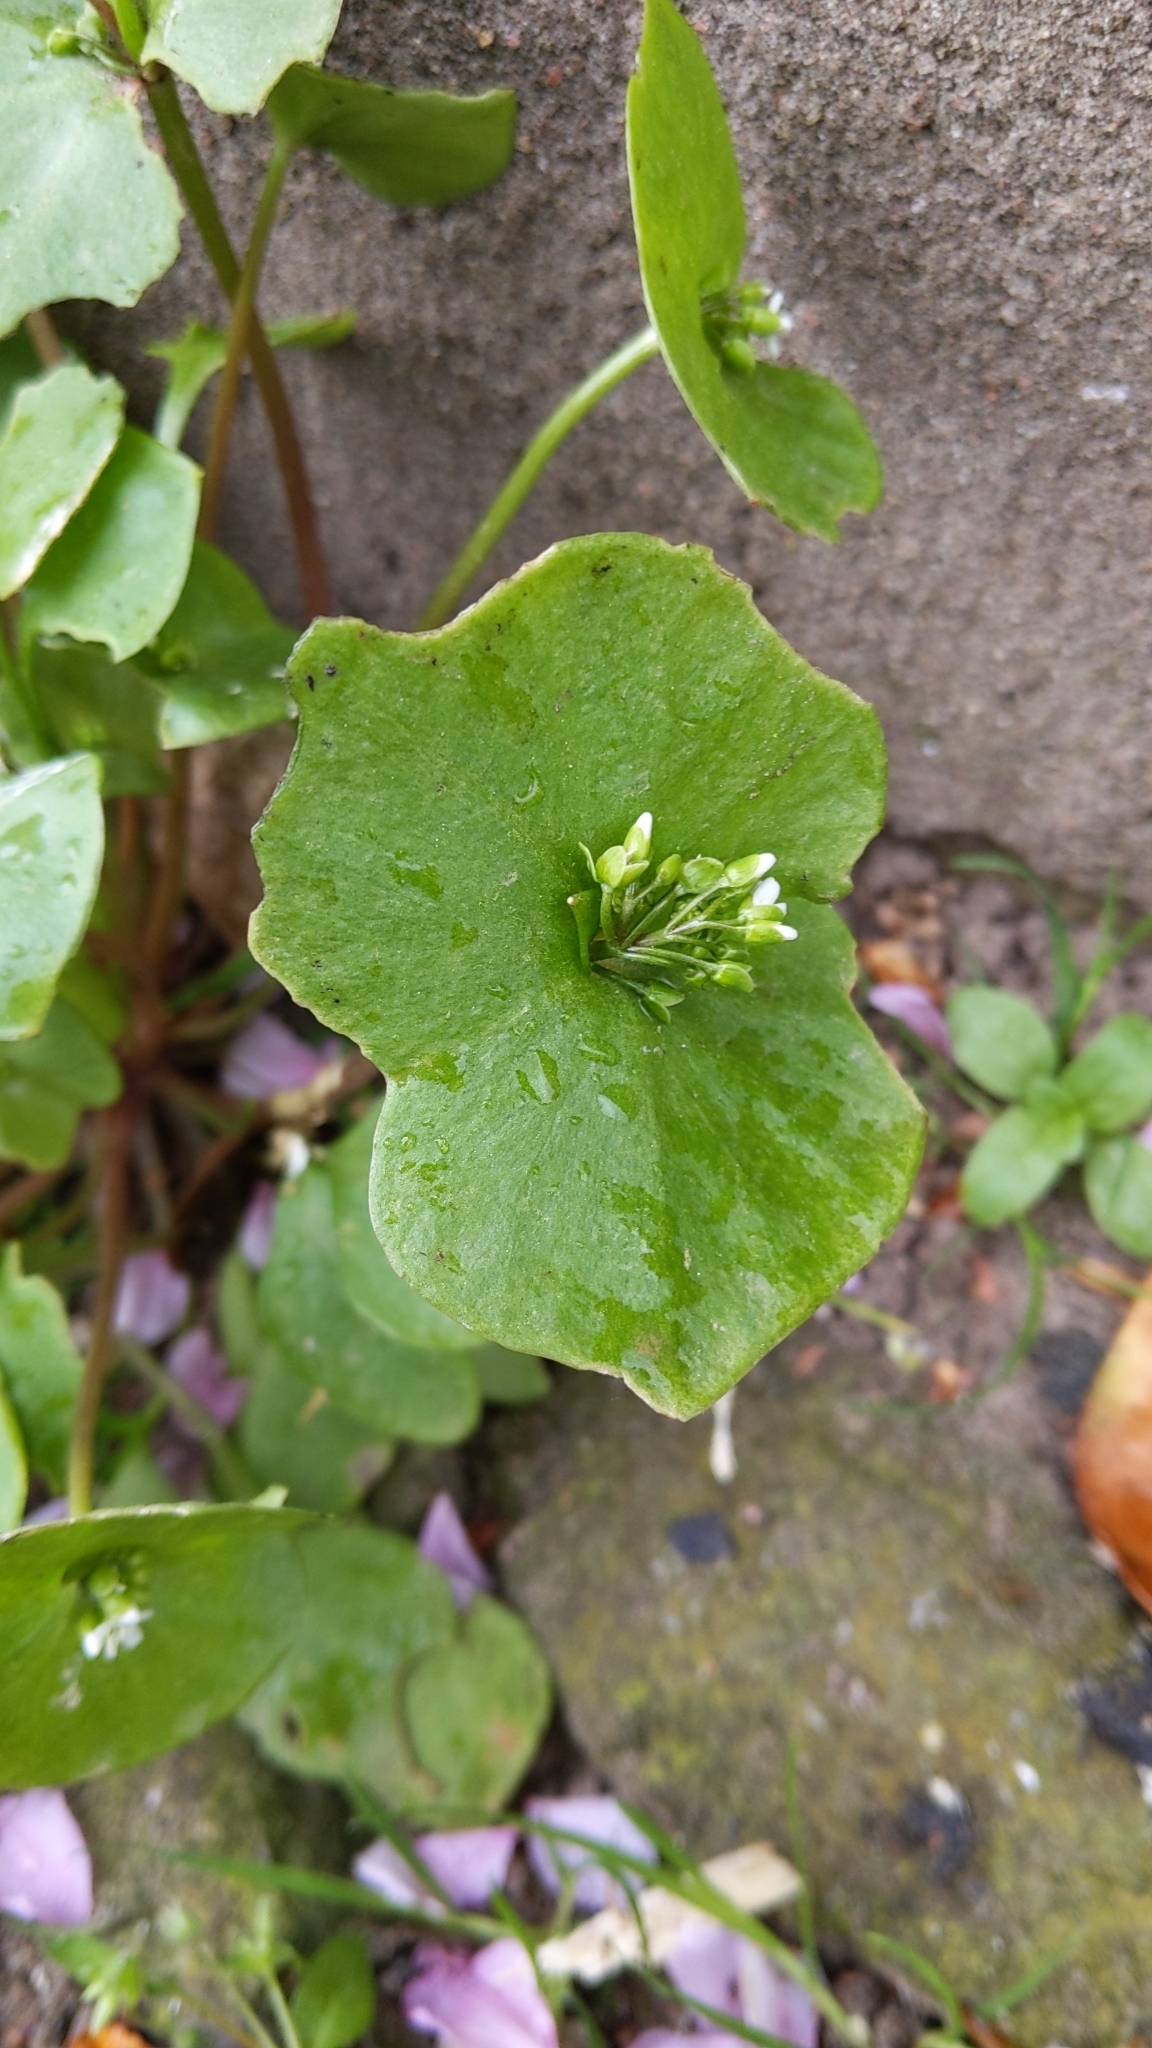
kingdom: Plantae
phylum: Tracheophyta
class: Magnoliopsida
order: Caryophyllales
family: Montiaceae
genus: Claytonia
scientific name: Claytonia perfoliata
